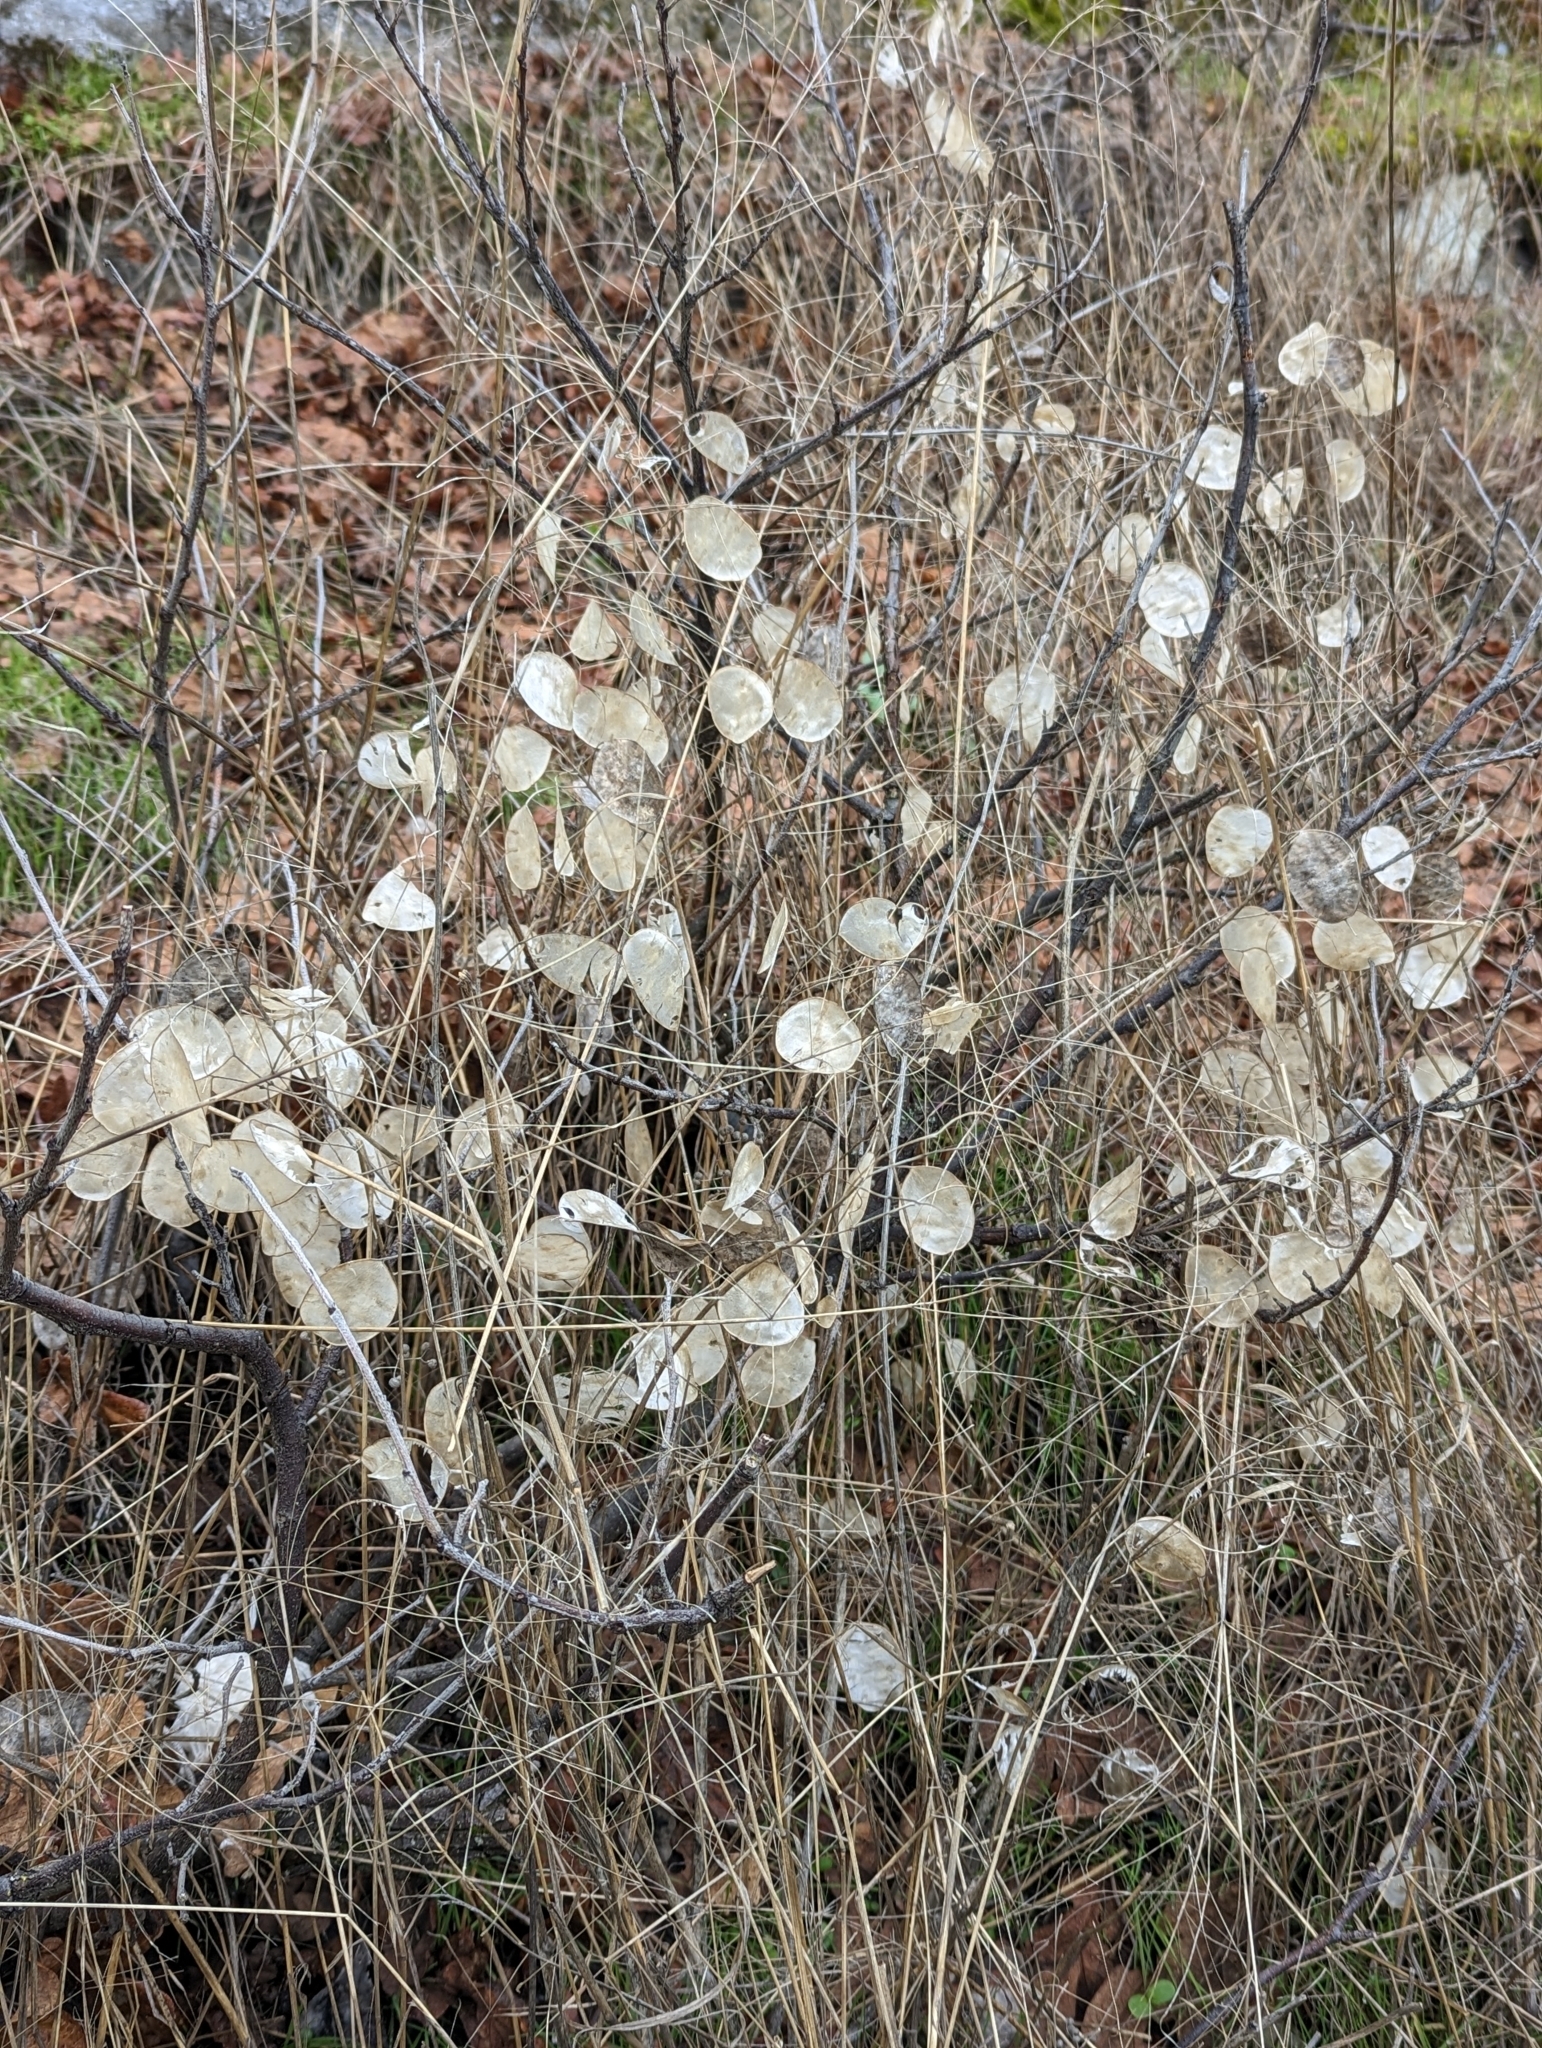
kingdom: Plantae
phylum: Tracheophyta
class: Magnoliopsida
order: Brassicales
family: Brassicaceae
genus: Lunaria
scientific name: Lunaria annua
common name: Honesty
